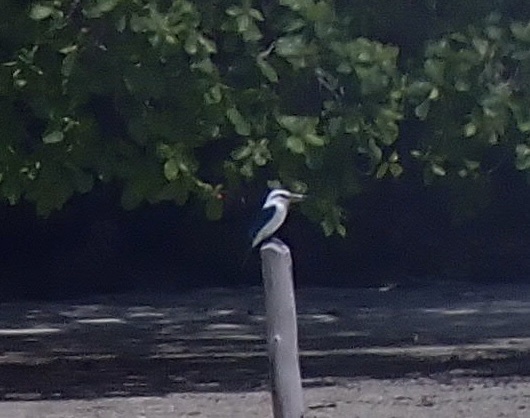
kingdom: Animalia
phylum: Chordata
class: Aves
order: Coraciiformes
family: Alcedinidae
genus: Todiramphus
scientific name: Todiramphus saurophagus
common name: Beach kingfisher
